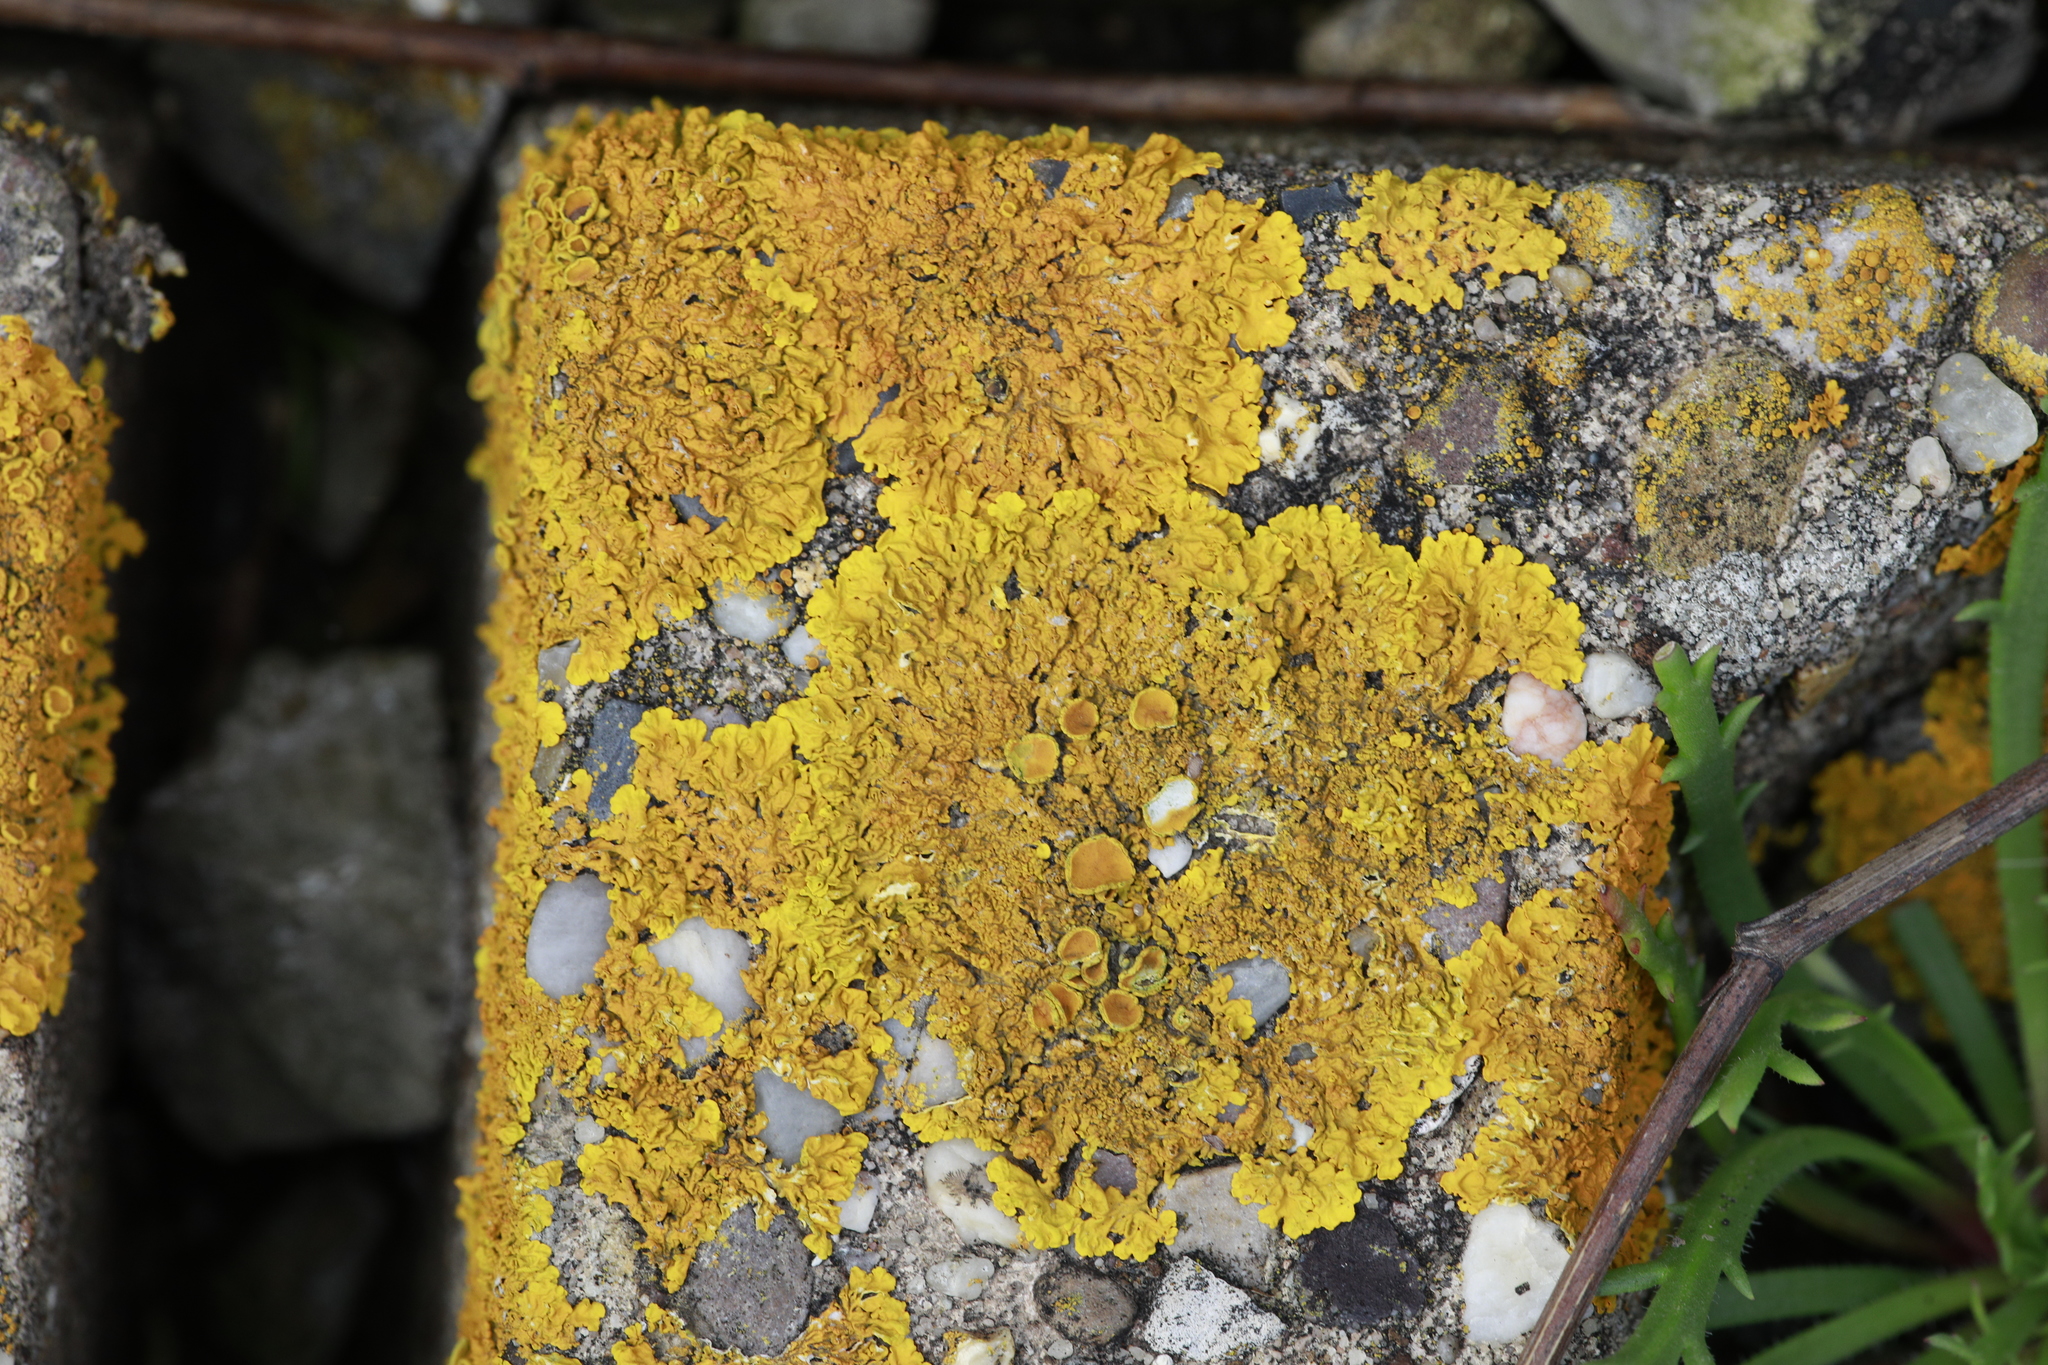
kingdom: Fungi
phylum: Ascomycota
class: Lecanoromycetes
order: Teloschistales
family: Teloschistaceae
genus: Xanthoria
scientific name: Xanthoria parietina
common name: Common orange lichen
